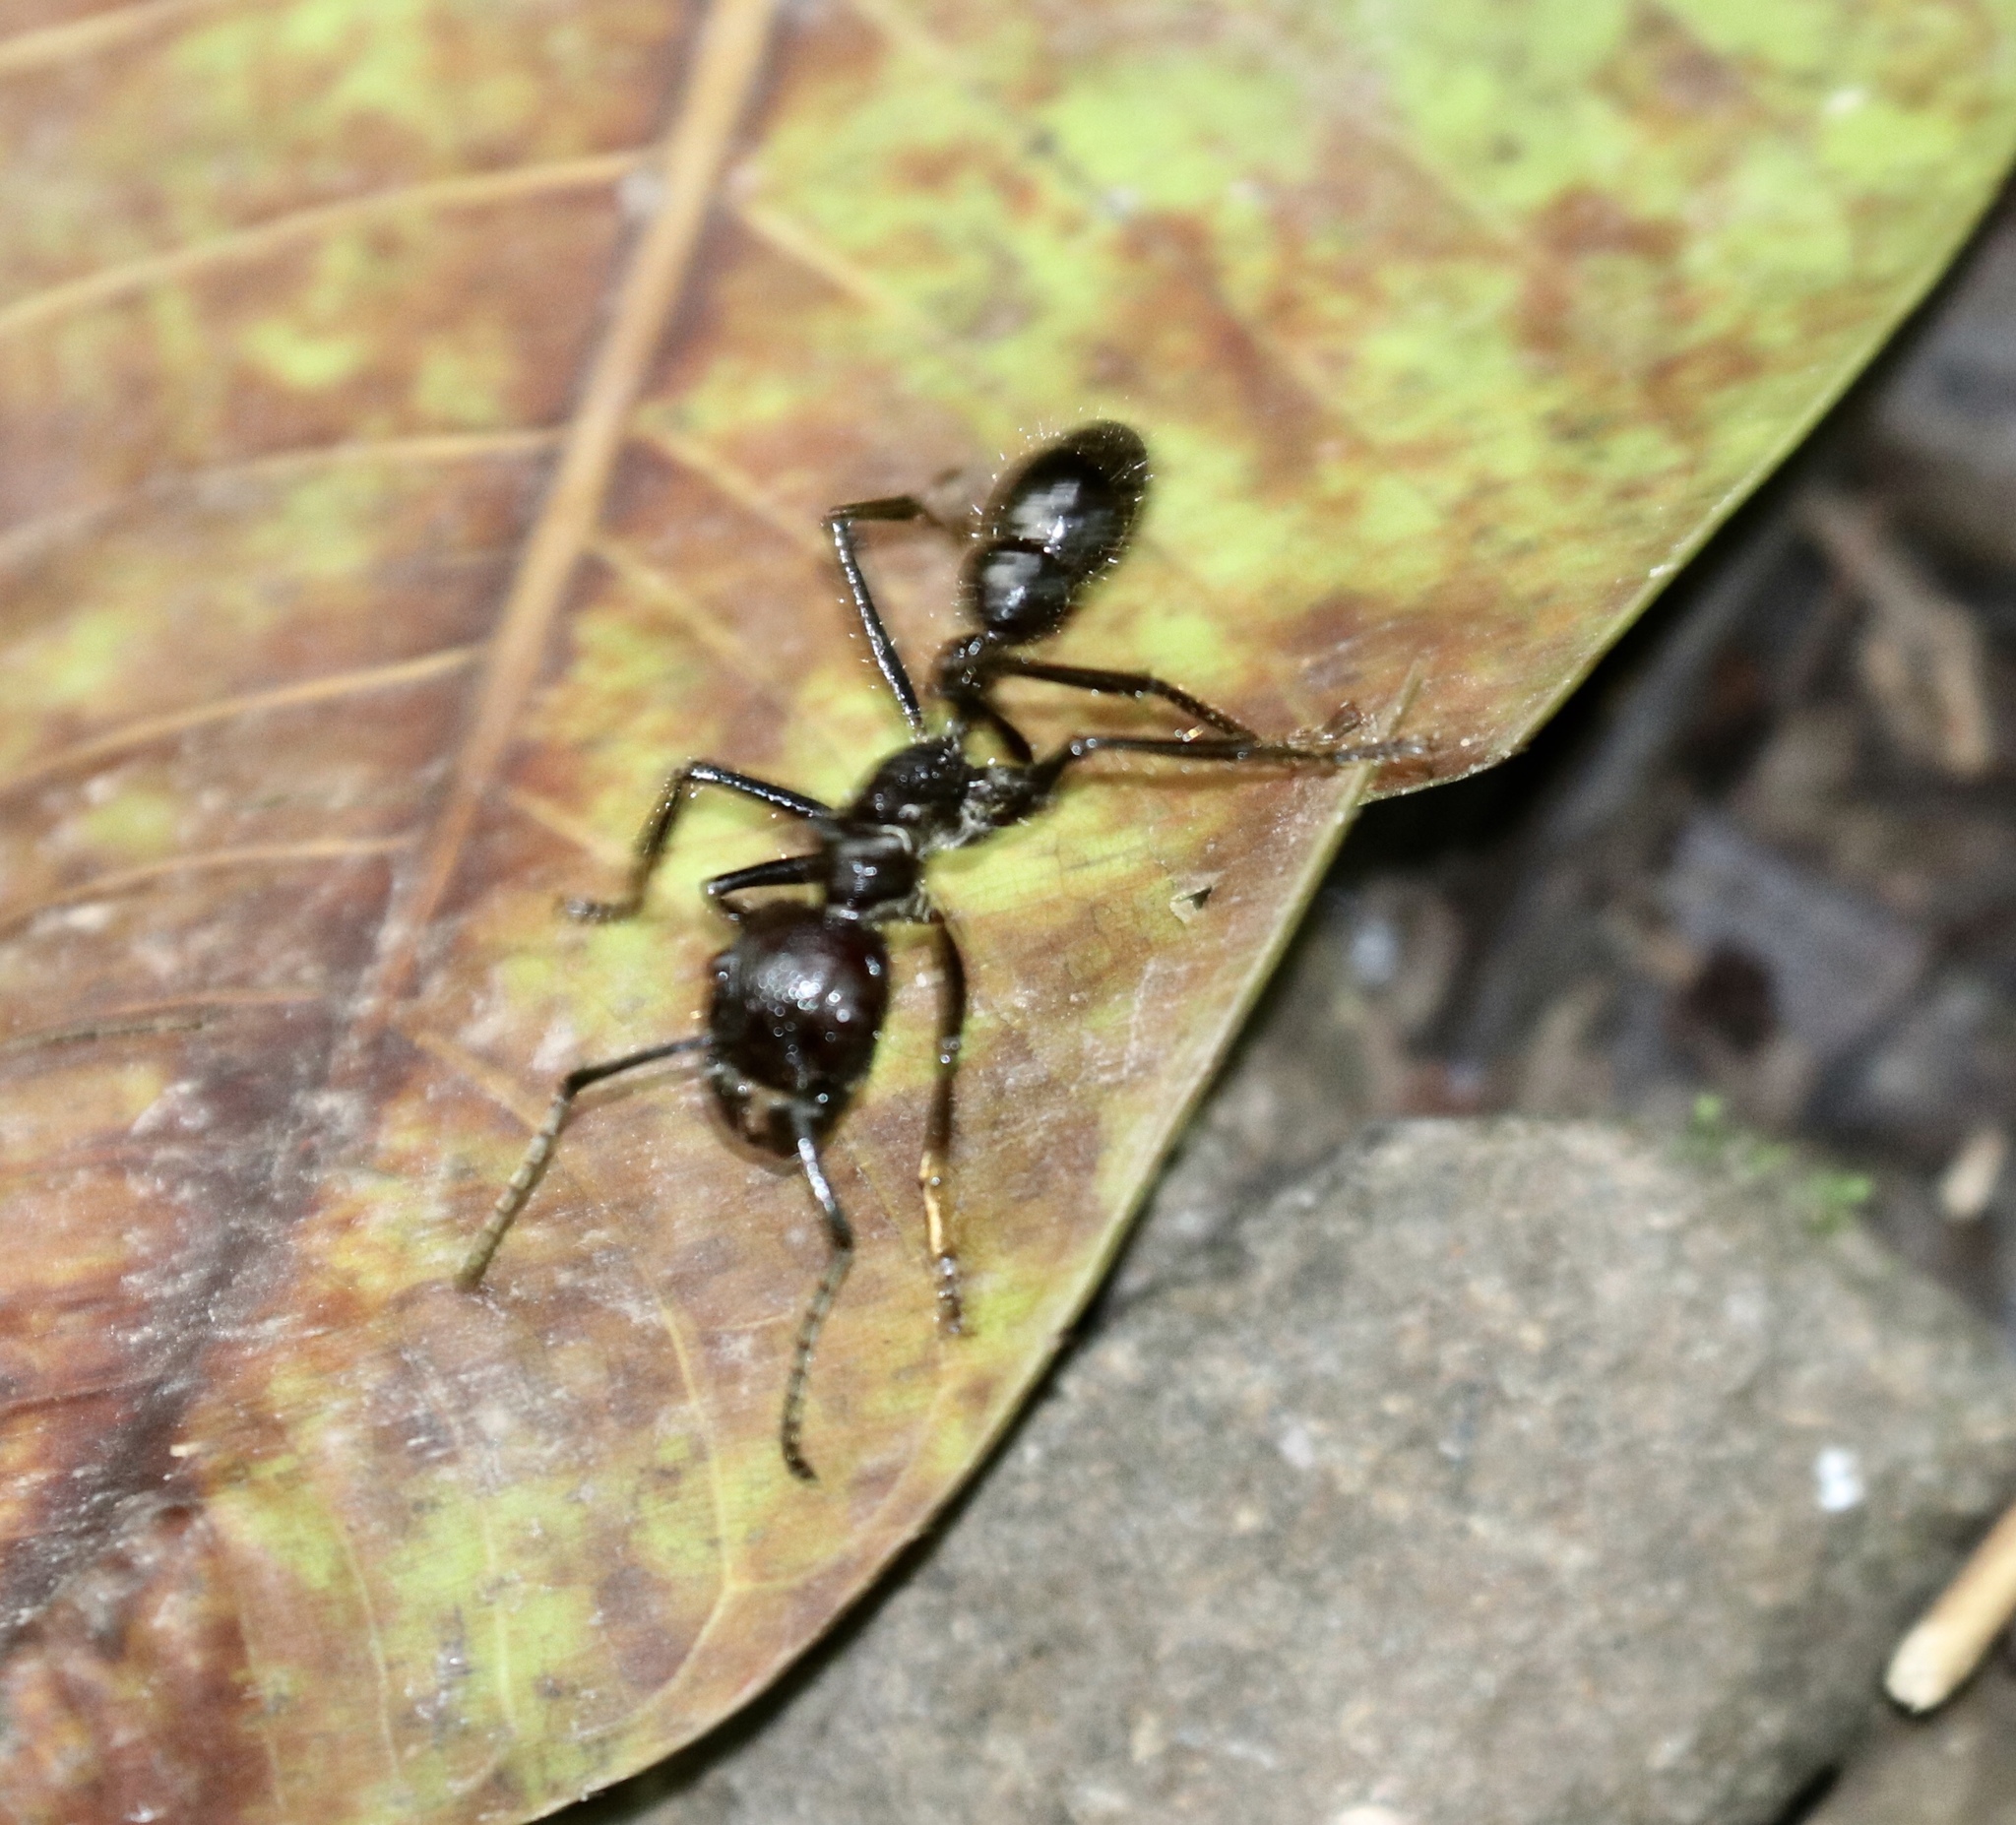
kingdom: Animalia
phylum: Arthropoda
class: Insecta
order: Hymenoptera
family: Formicidae
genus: Paraponera
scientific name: Paraponera clavata
